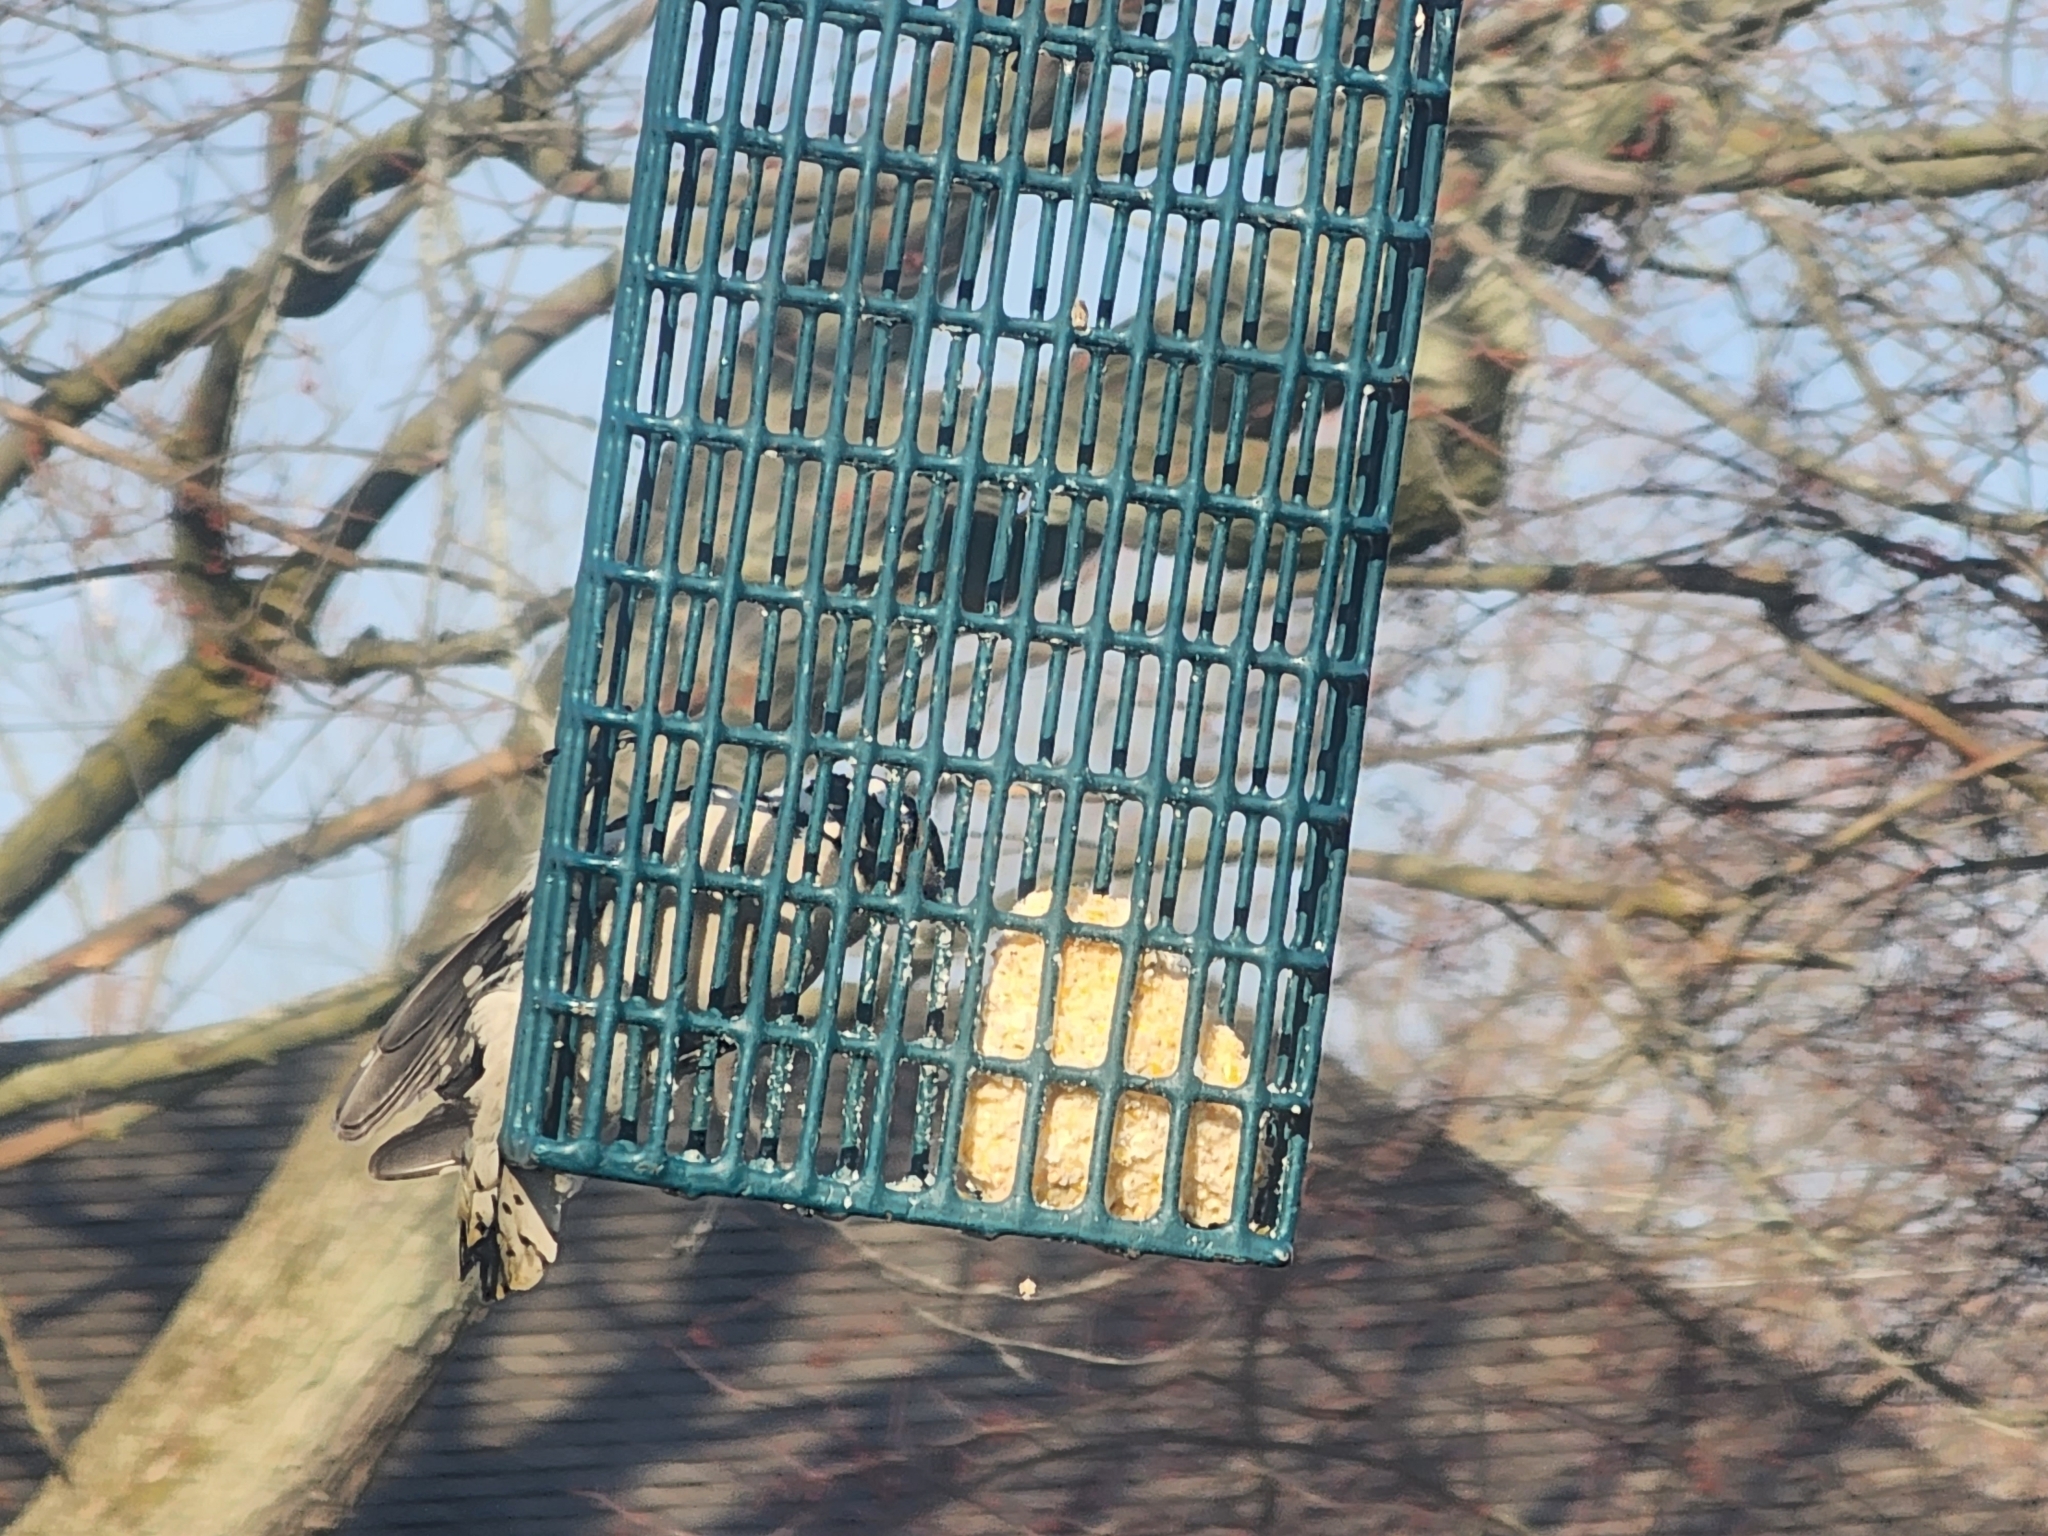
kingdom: Animalia
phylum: Chordata
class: Aves
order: Piciformes
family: Picidae
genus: Dryobates
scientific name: Dryobates pubescens
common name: Downy woodpecker
